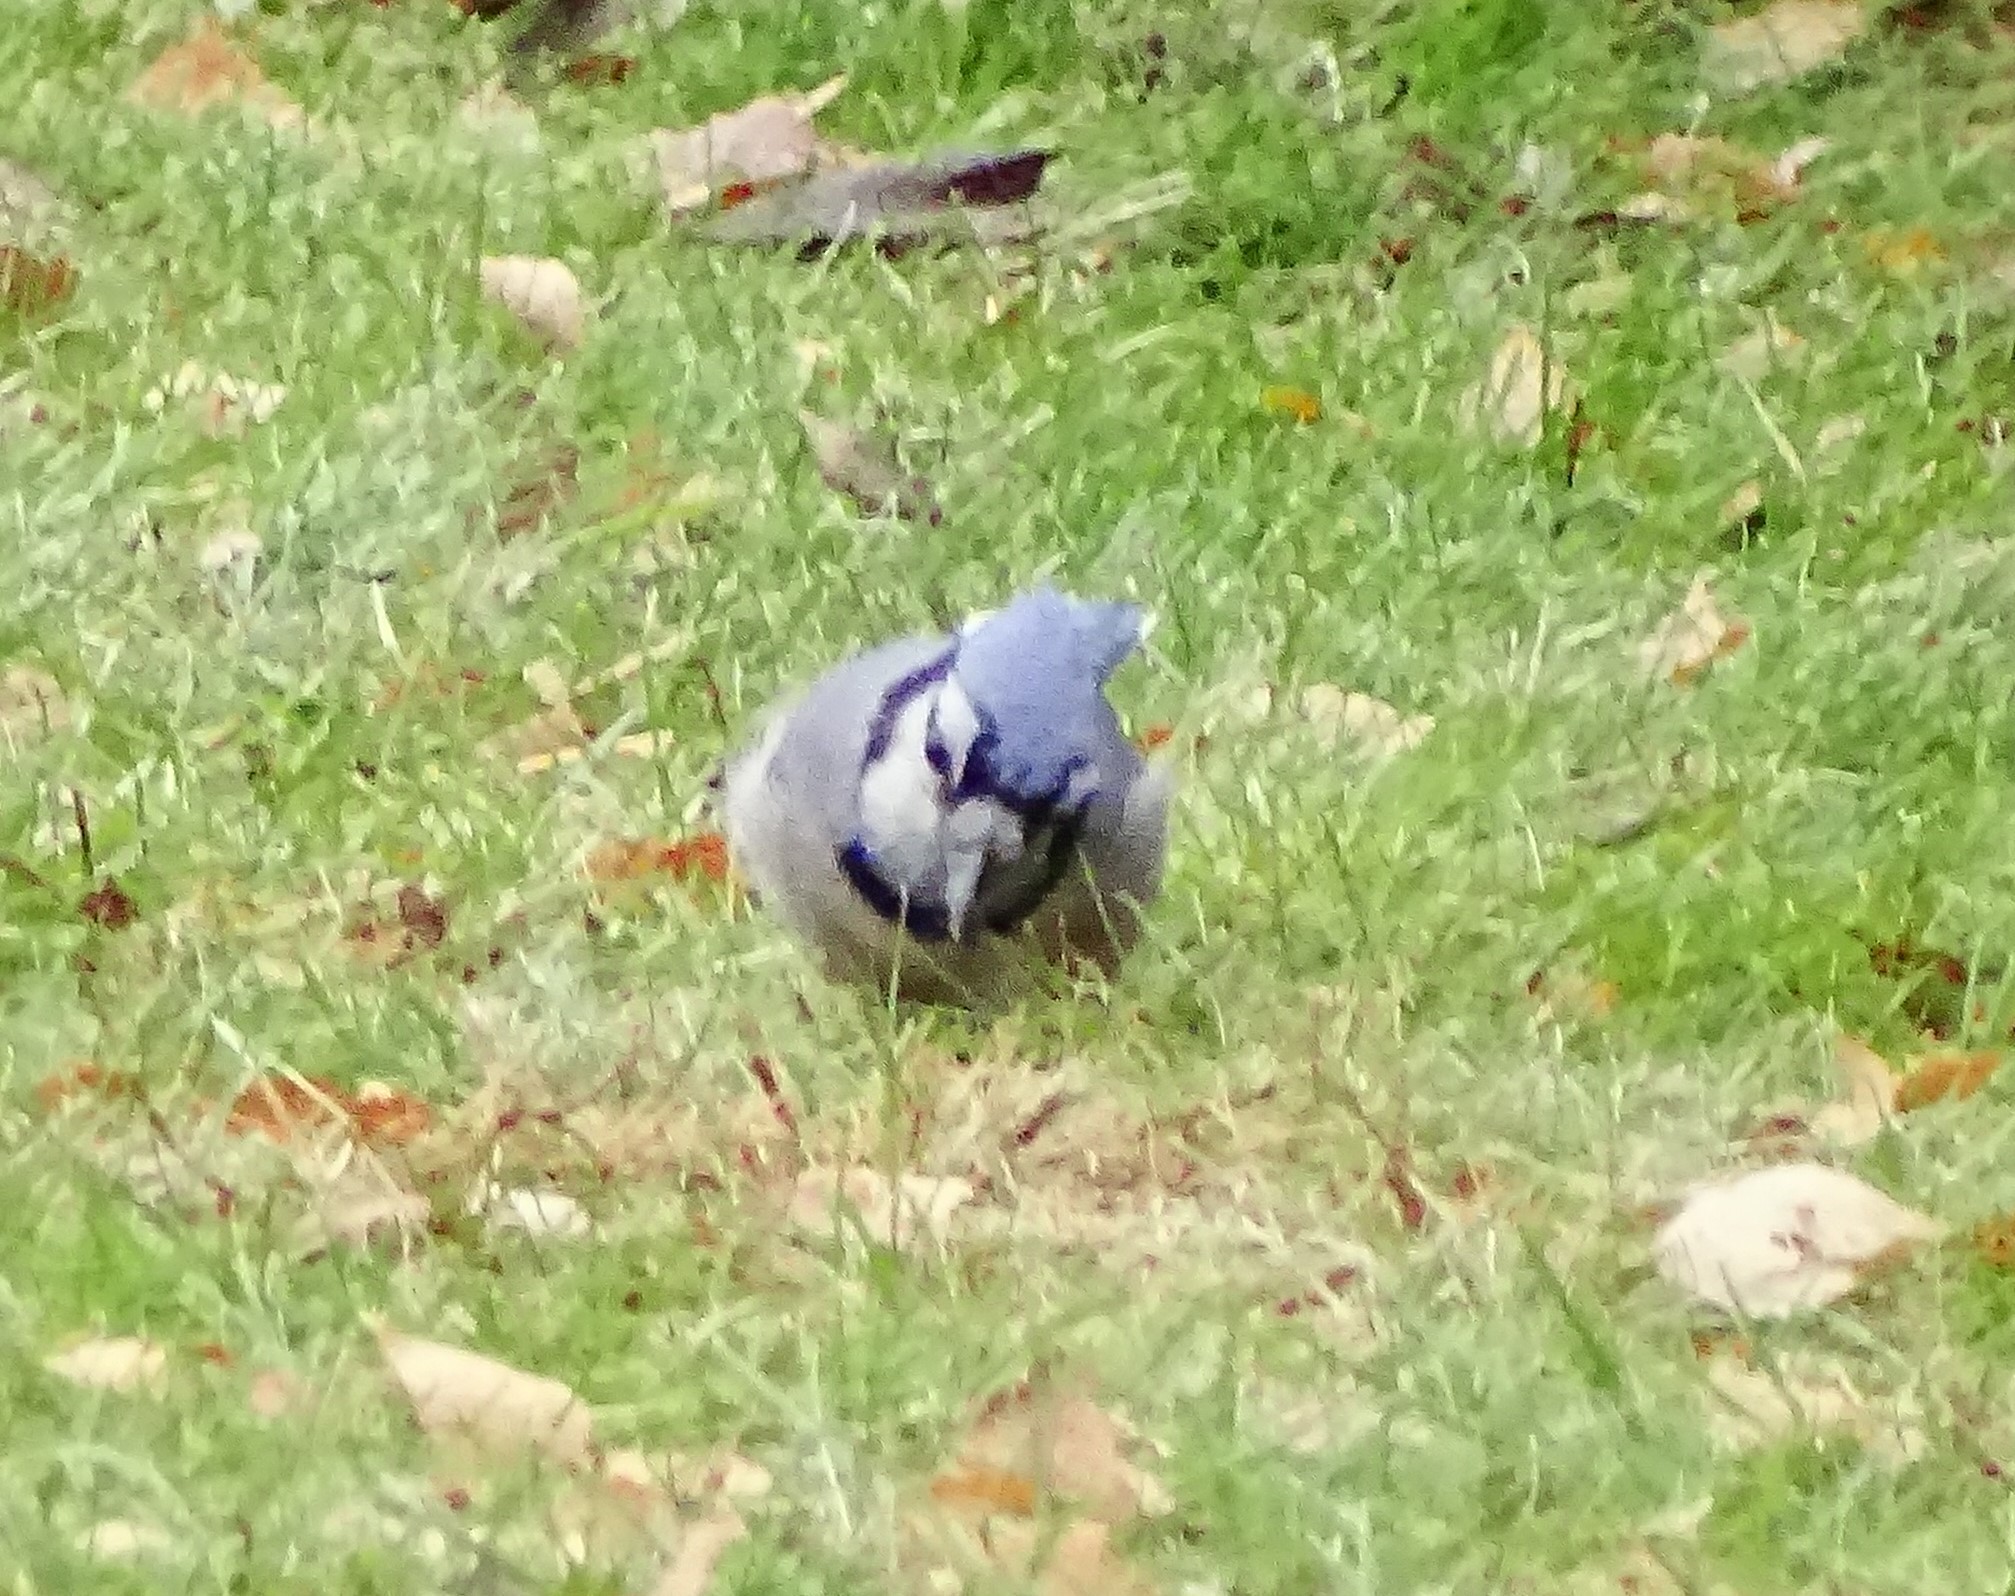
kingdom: Animalia
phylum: Chordata
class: Aves
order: Passeriformes
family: Corvidae
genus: Cyanocitta
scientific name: Cyanocitta cristata
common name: Blue jay
